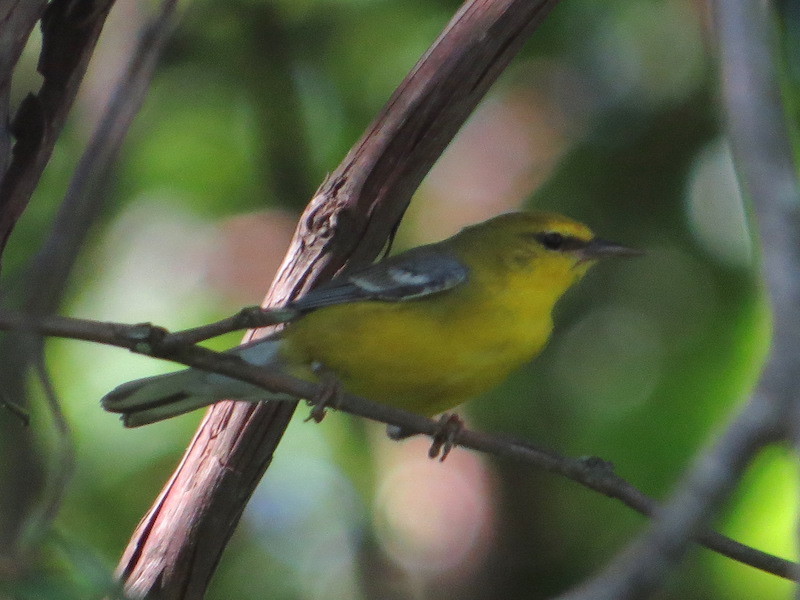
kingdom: Animalia
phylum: Chordata
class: Aves
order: Passeriformes
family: Parulidae
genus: Vermivora
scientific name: Vermivora cyanoptera
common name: Blue-winged warbler
